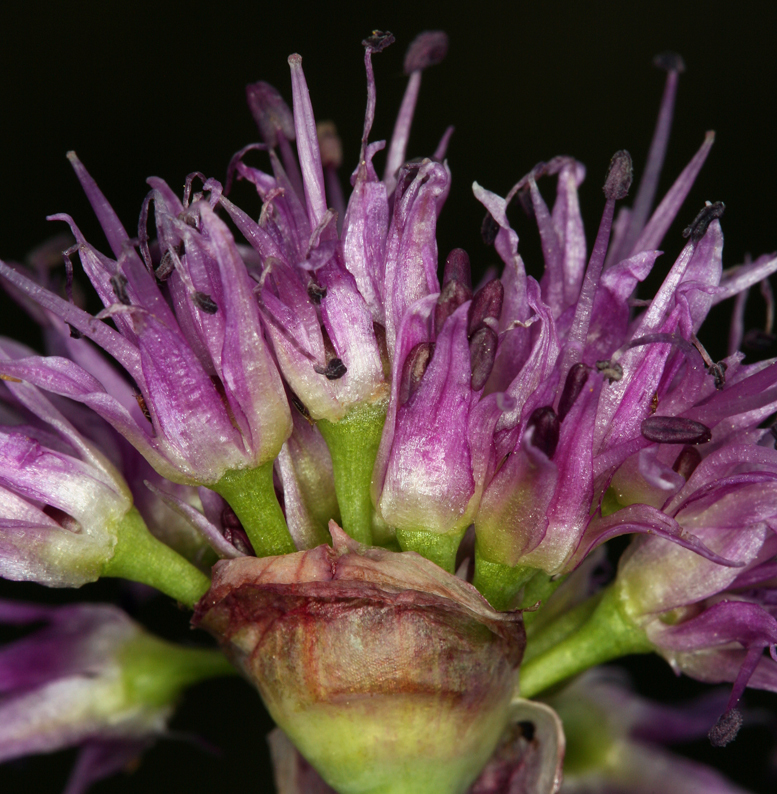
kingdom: Plantae
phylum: Tracheophyta
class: Liliopsida
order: Asparagales
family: Amaryllidaceae
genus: Allium
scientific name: Allium validum
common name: Pacific mountain onion
